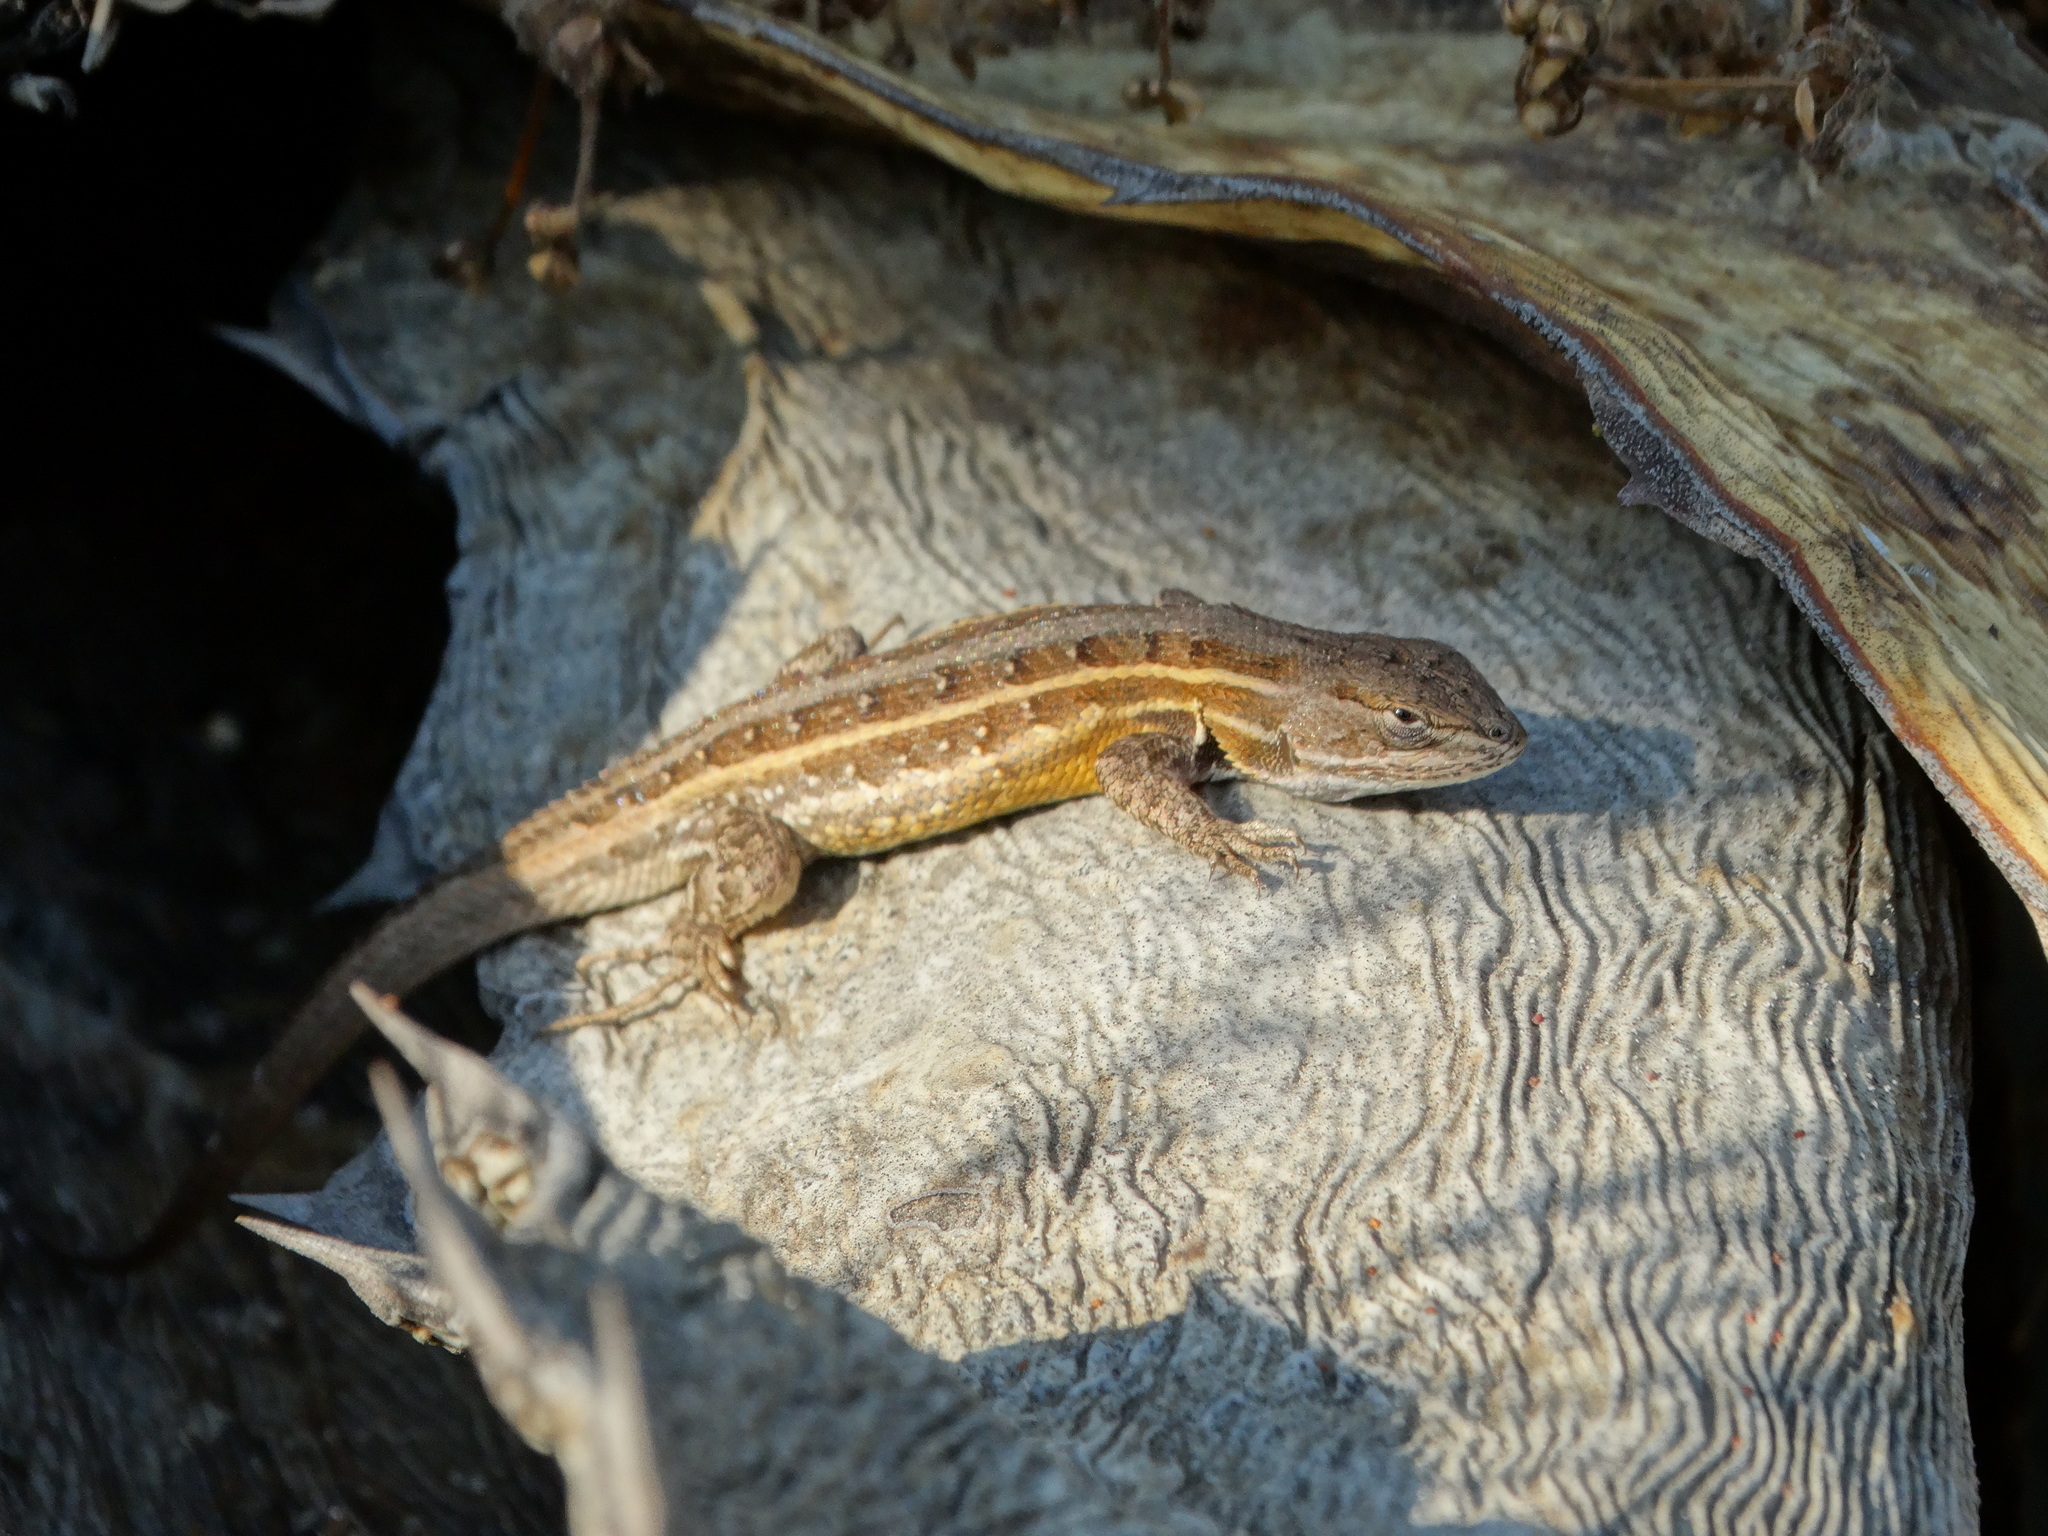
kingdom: Animalia
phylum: Chordata
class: Squamata
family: Phrynosomatidae
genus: Sceloporus
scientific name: Sceloporus subniger
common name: Plateau bunchgrass lizard
